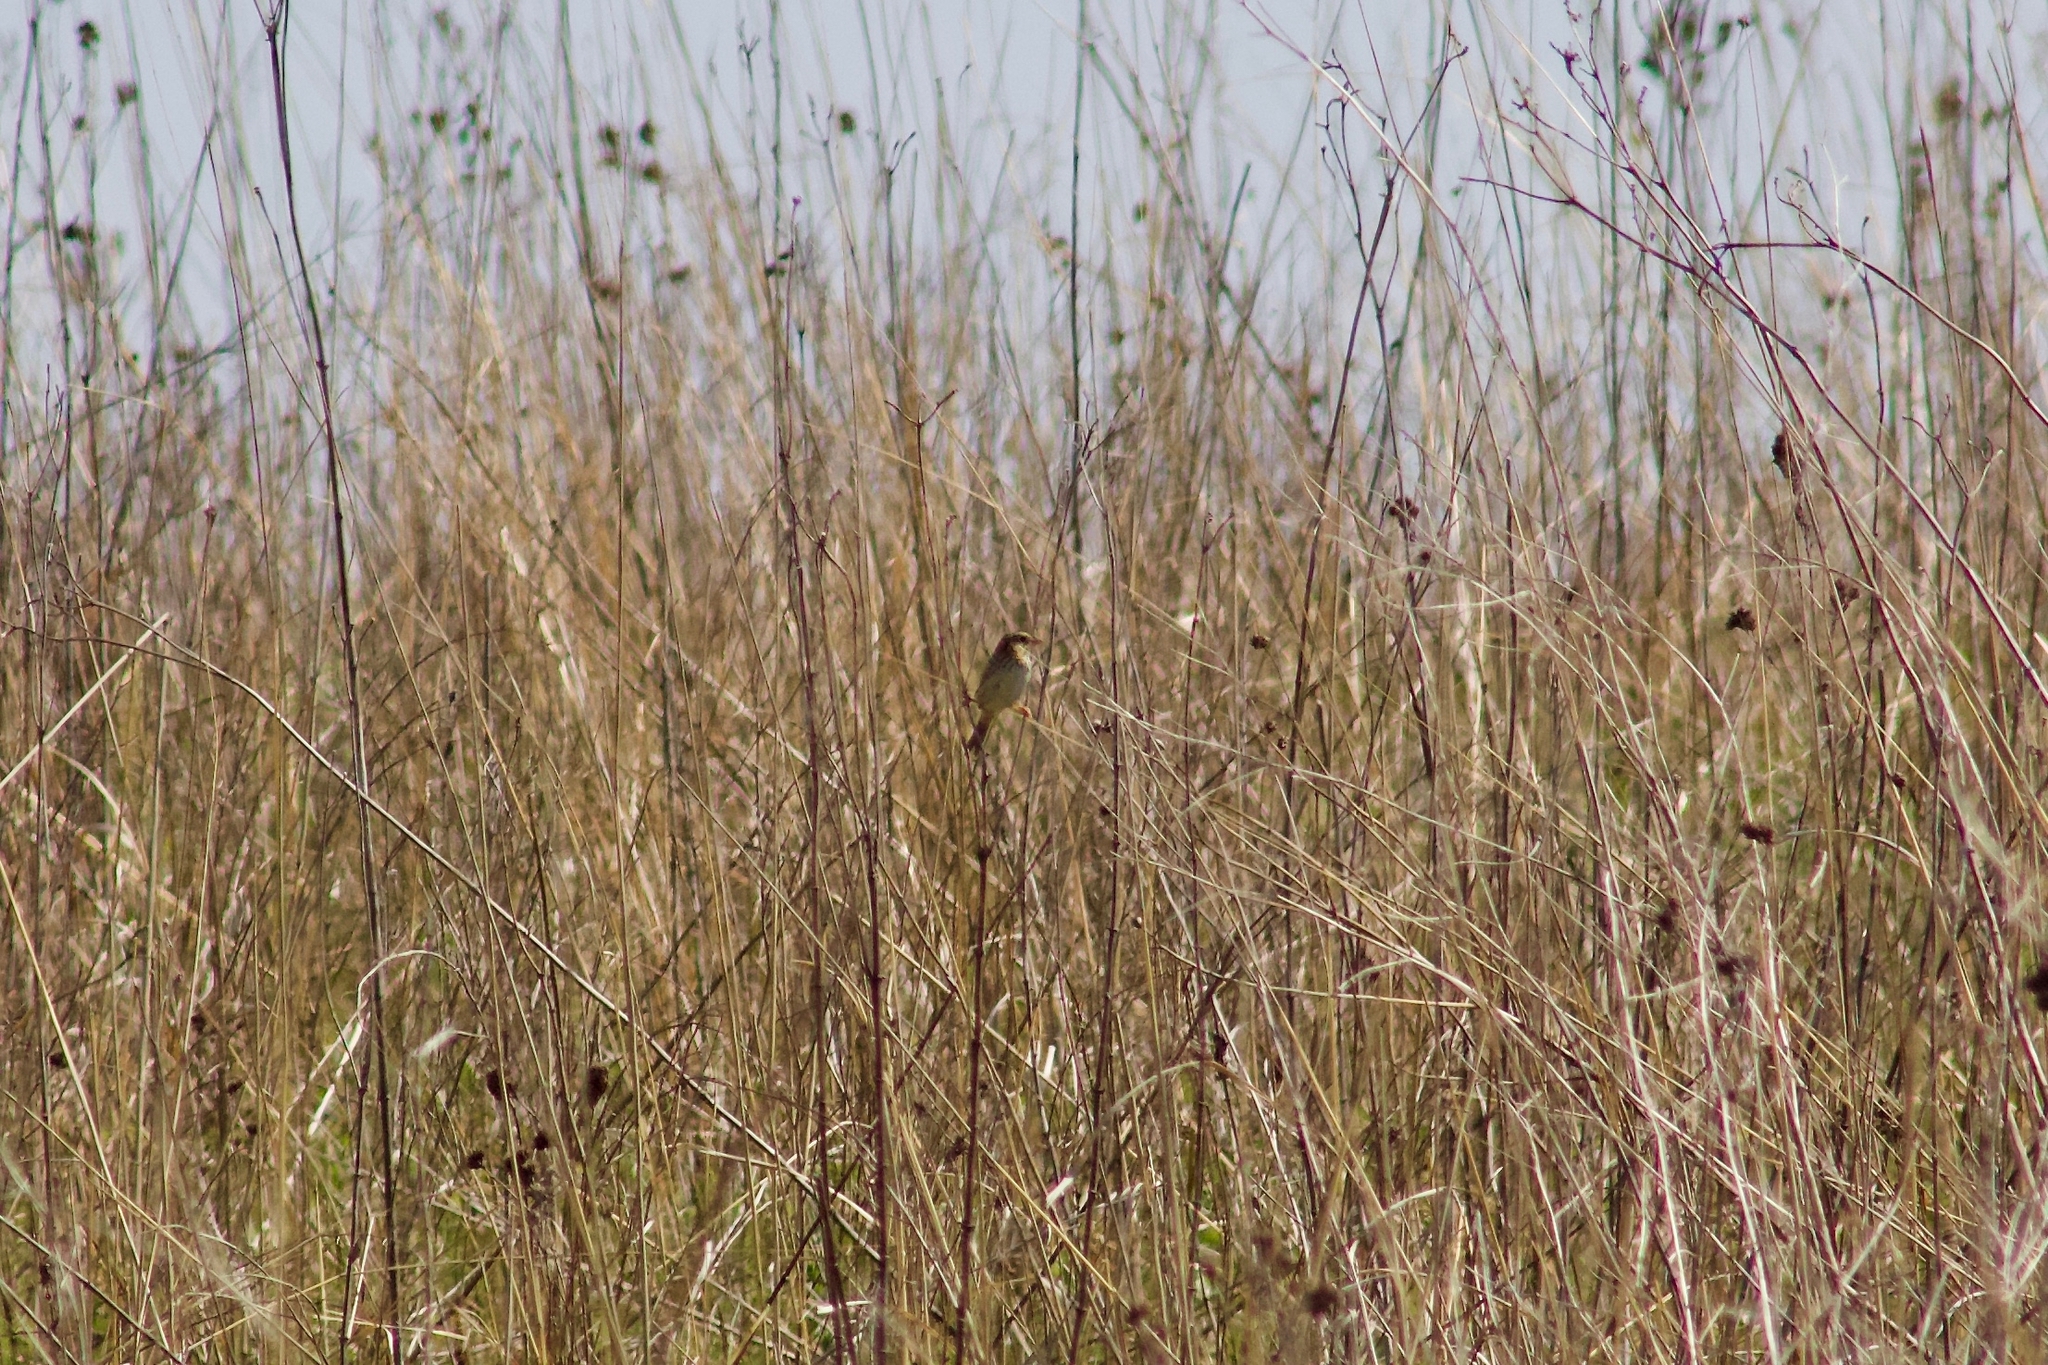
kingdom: Animalia
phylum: Chordata
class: Aves
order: Passeriformes
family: Passerellidae
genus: Centronyx
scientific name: Centronyx henslowii
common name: Henslow's sparrow
